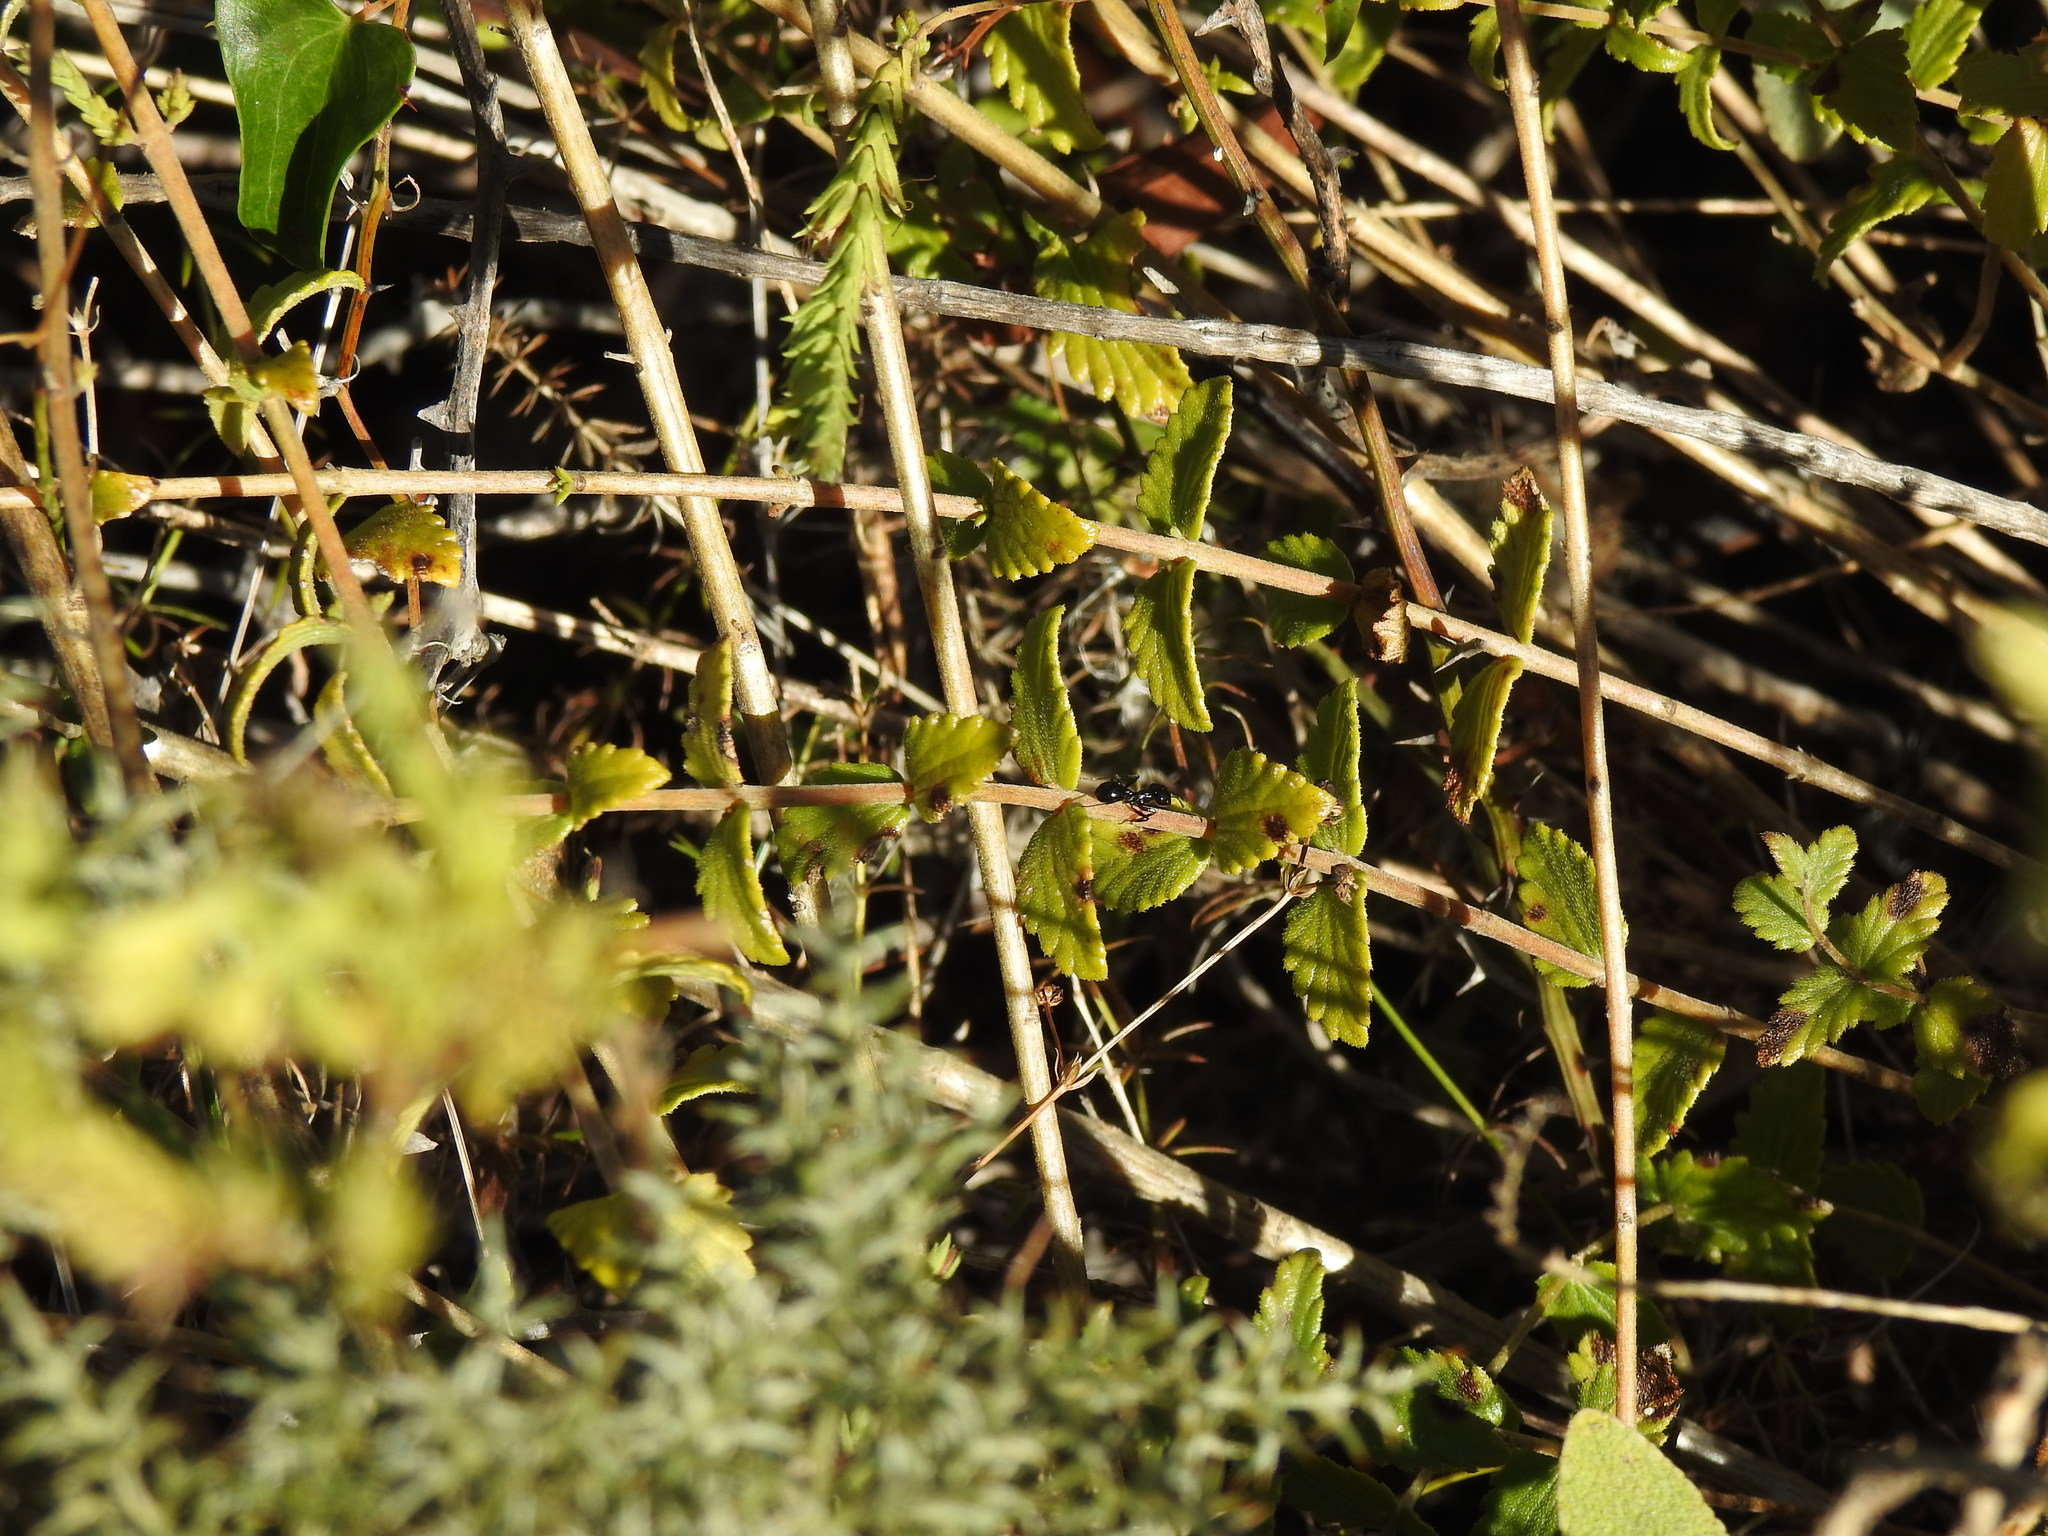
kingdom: Plantae
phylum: Tracheophyta
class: Magnoliopsida
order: Lamiales
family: Orobanchaceae
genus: Nothobartsia
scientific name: Nothobartsia asperrima
